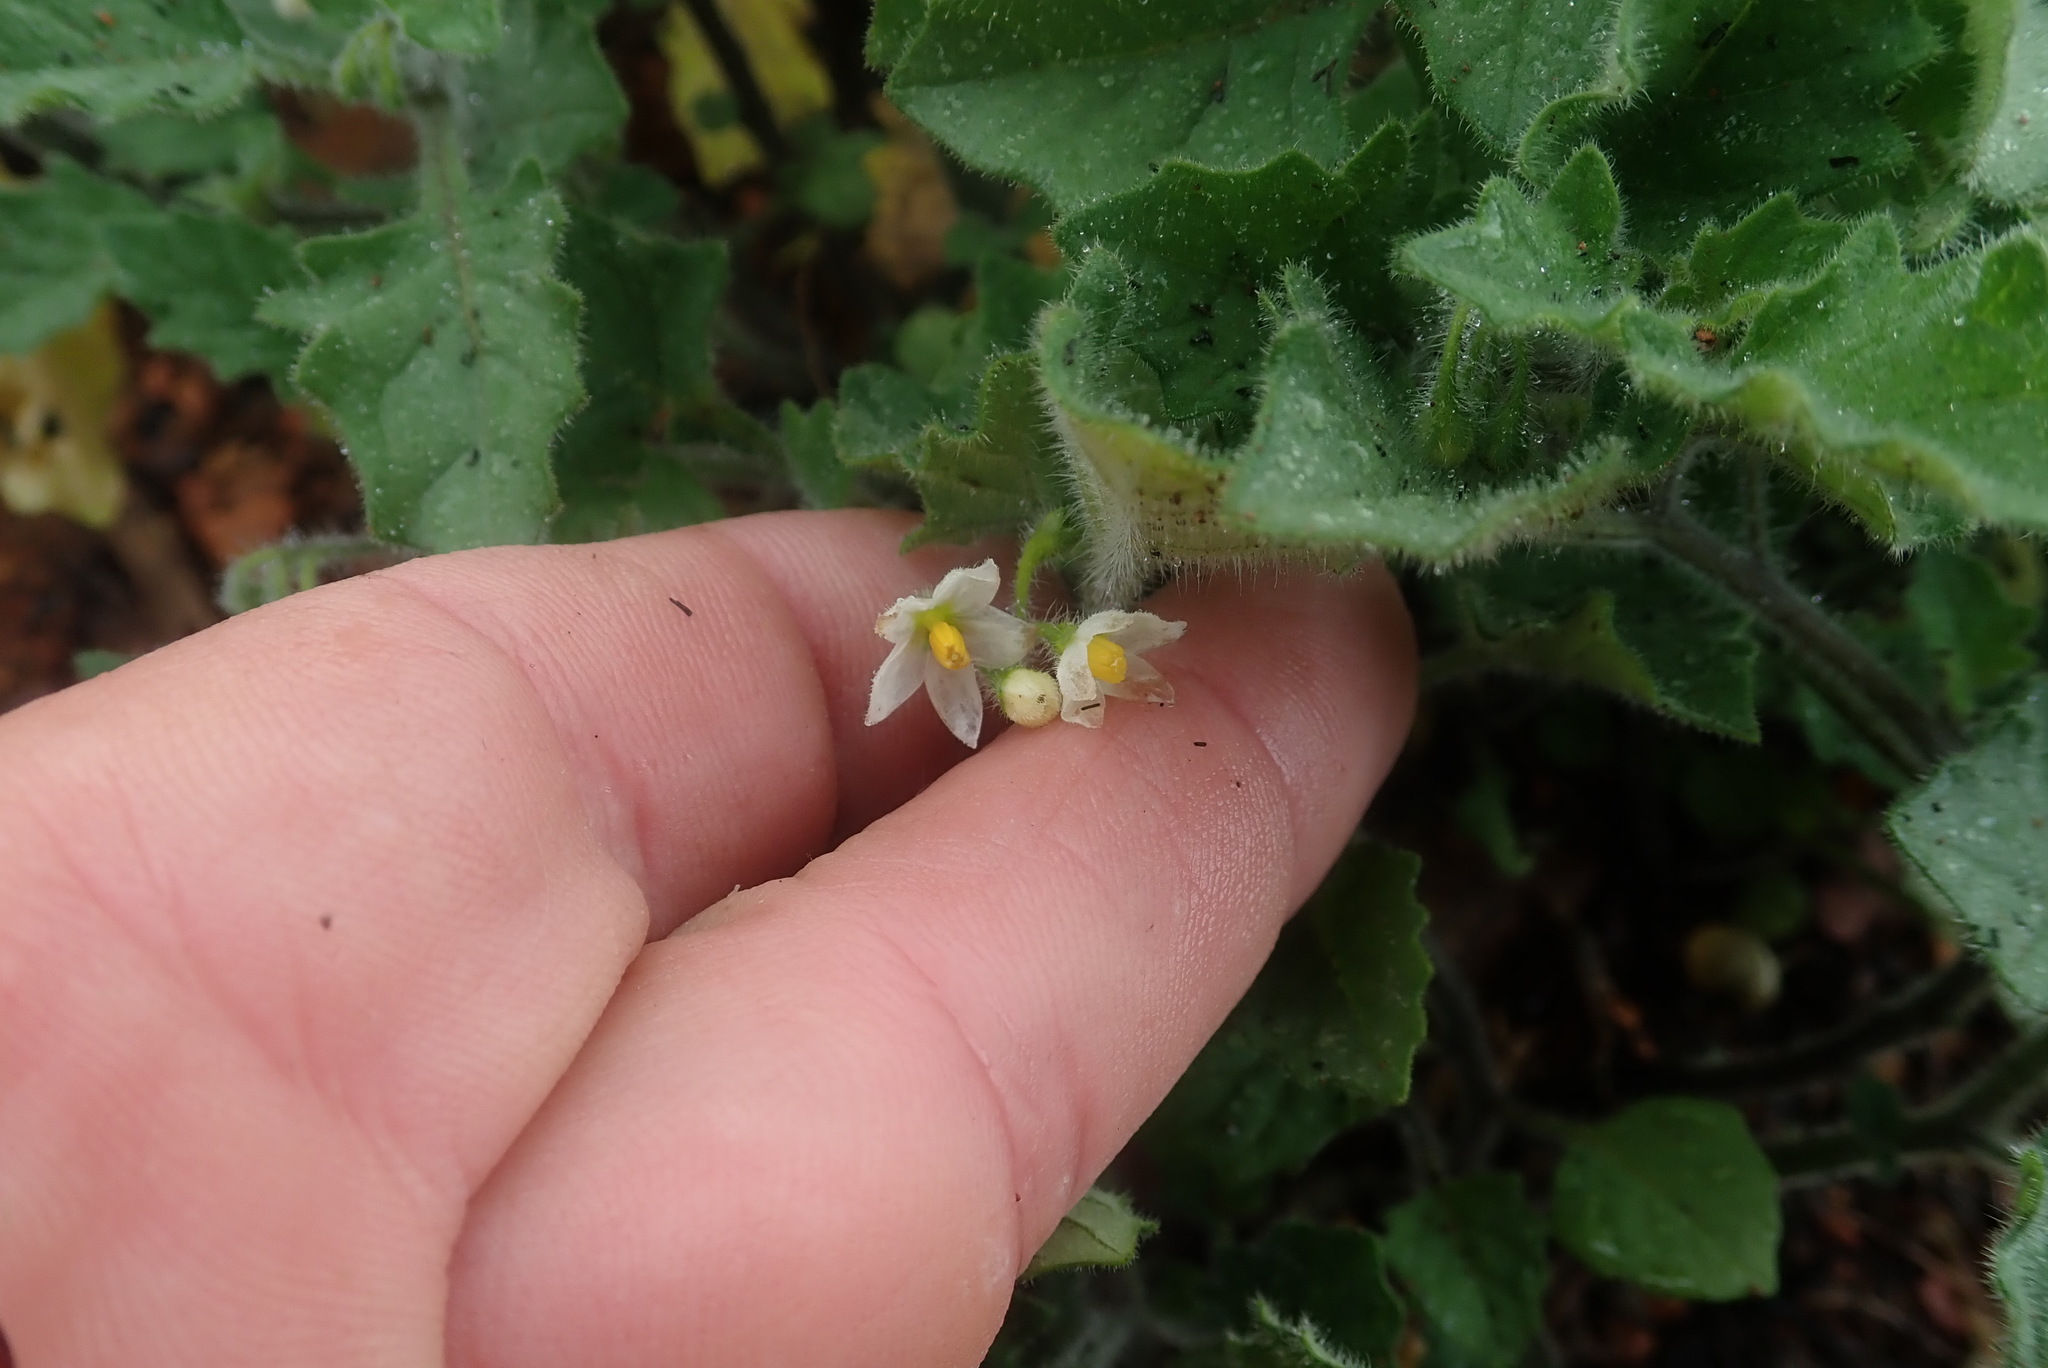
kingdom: Plantae
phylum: Tracheophyta
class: Magnoliopsida
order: Solanales
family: Solanaceae
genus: Solanum
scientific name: Solanum retroflexum
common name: Wonderberry
